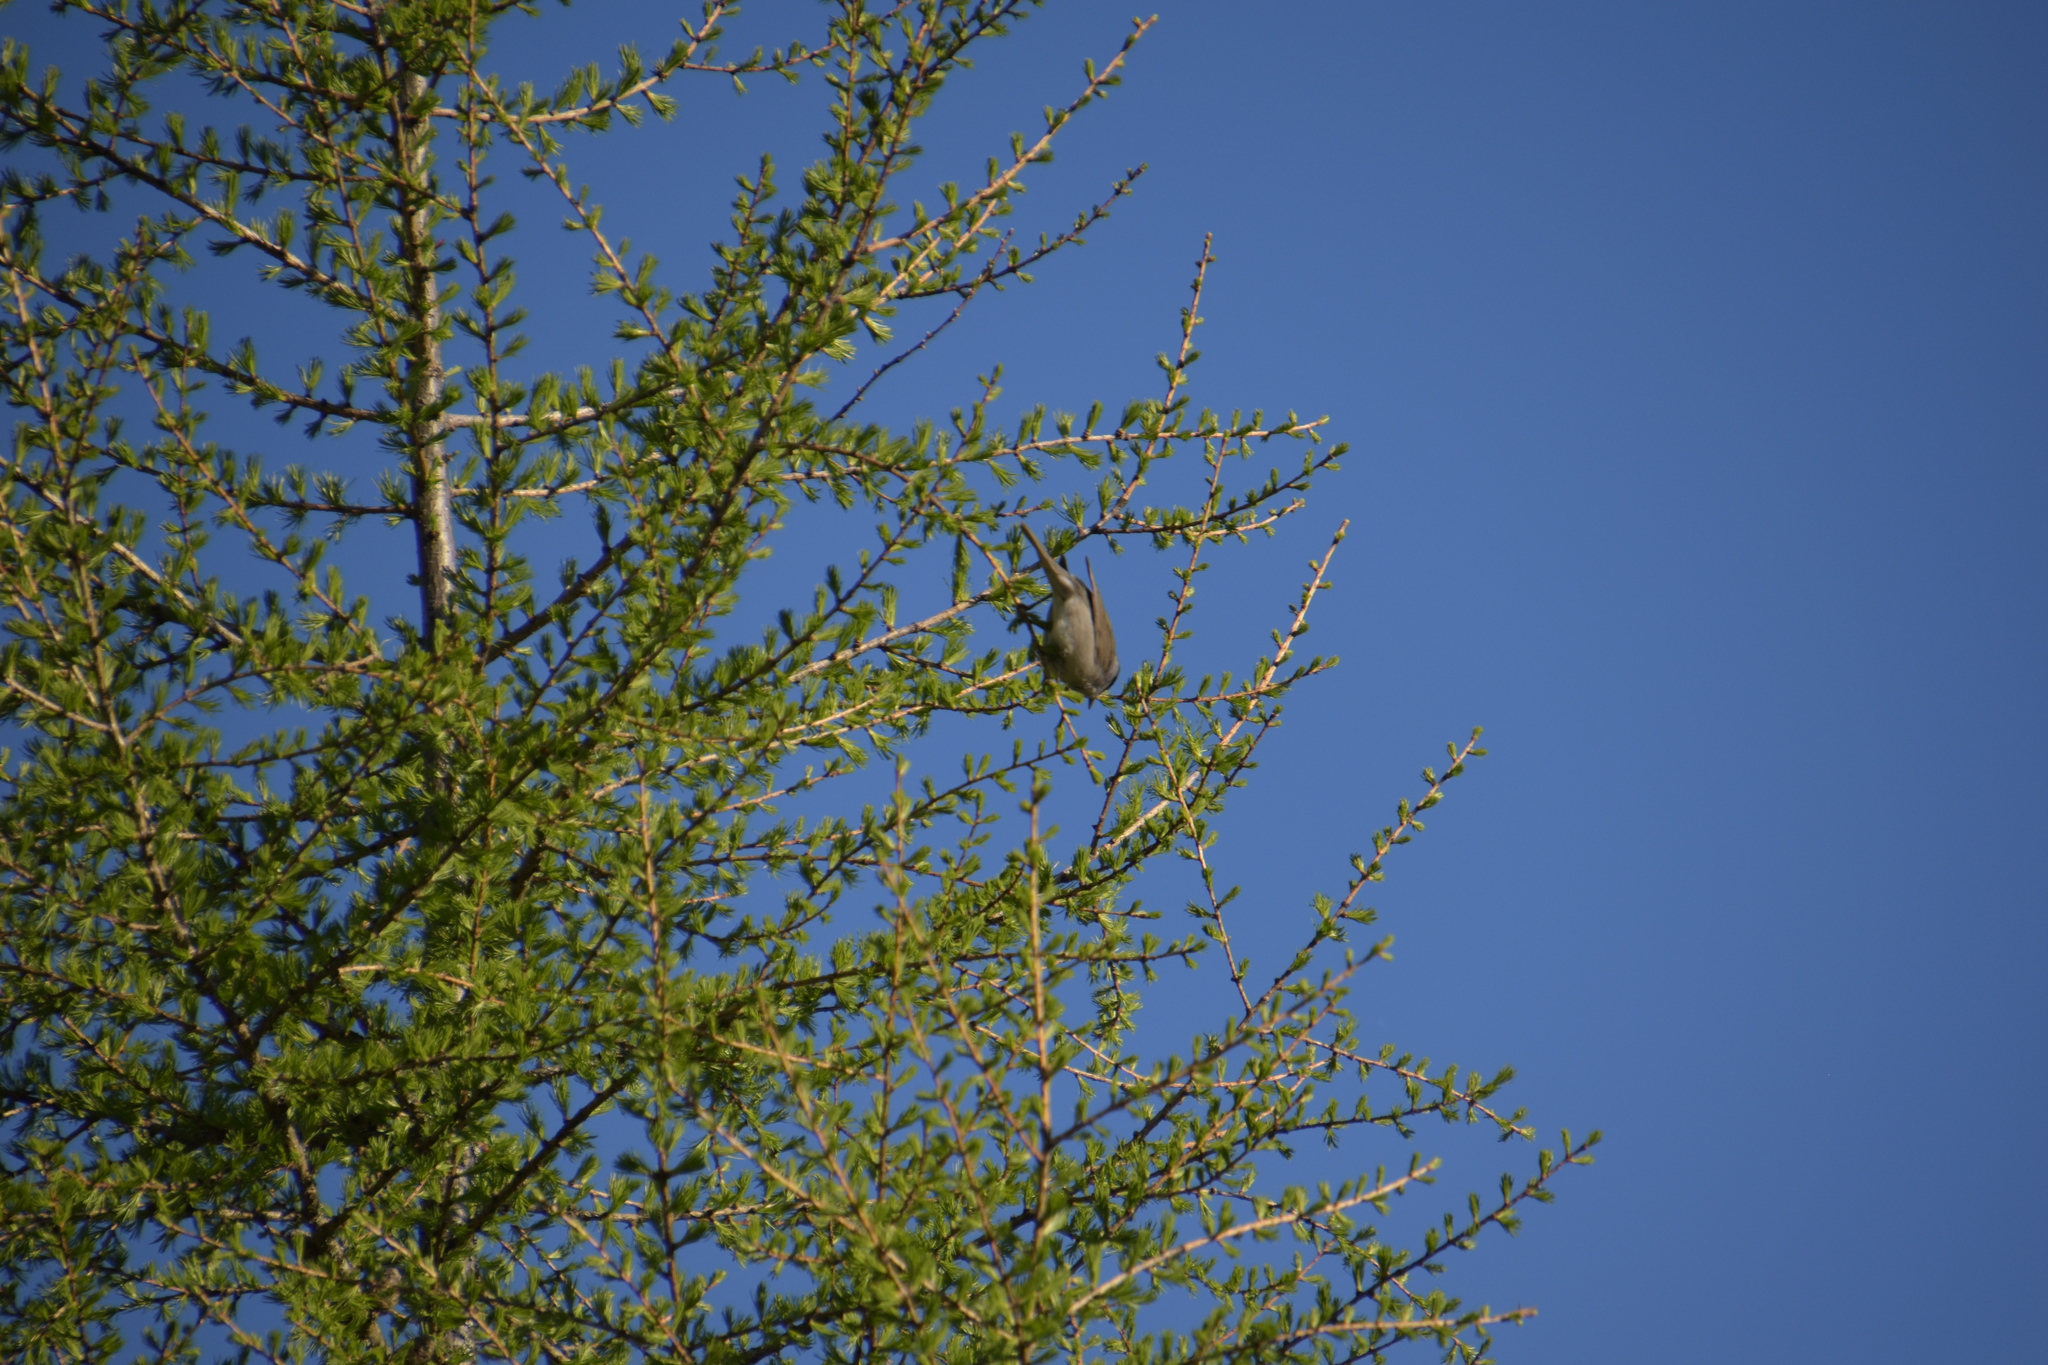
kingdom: Animalia
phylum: Chordata
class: Aves
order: Passeriformes
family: Sylviidae
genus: Sylvia
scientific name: Sylvia atricapilla
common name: Eurasian blackcap
